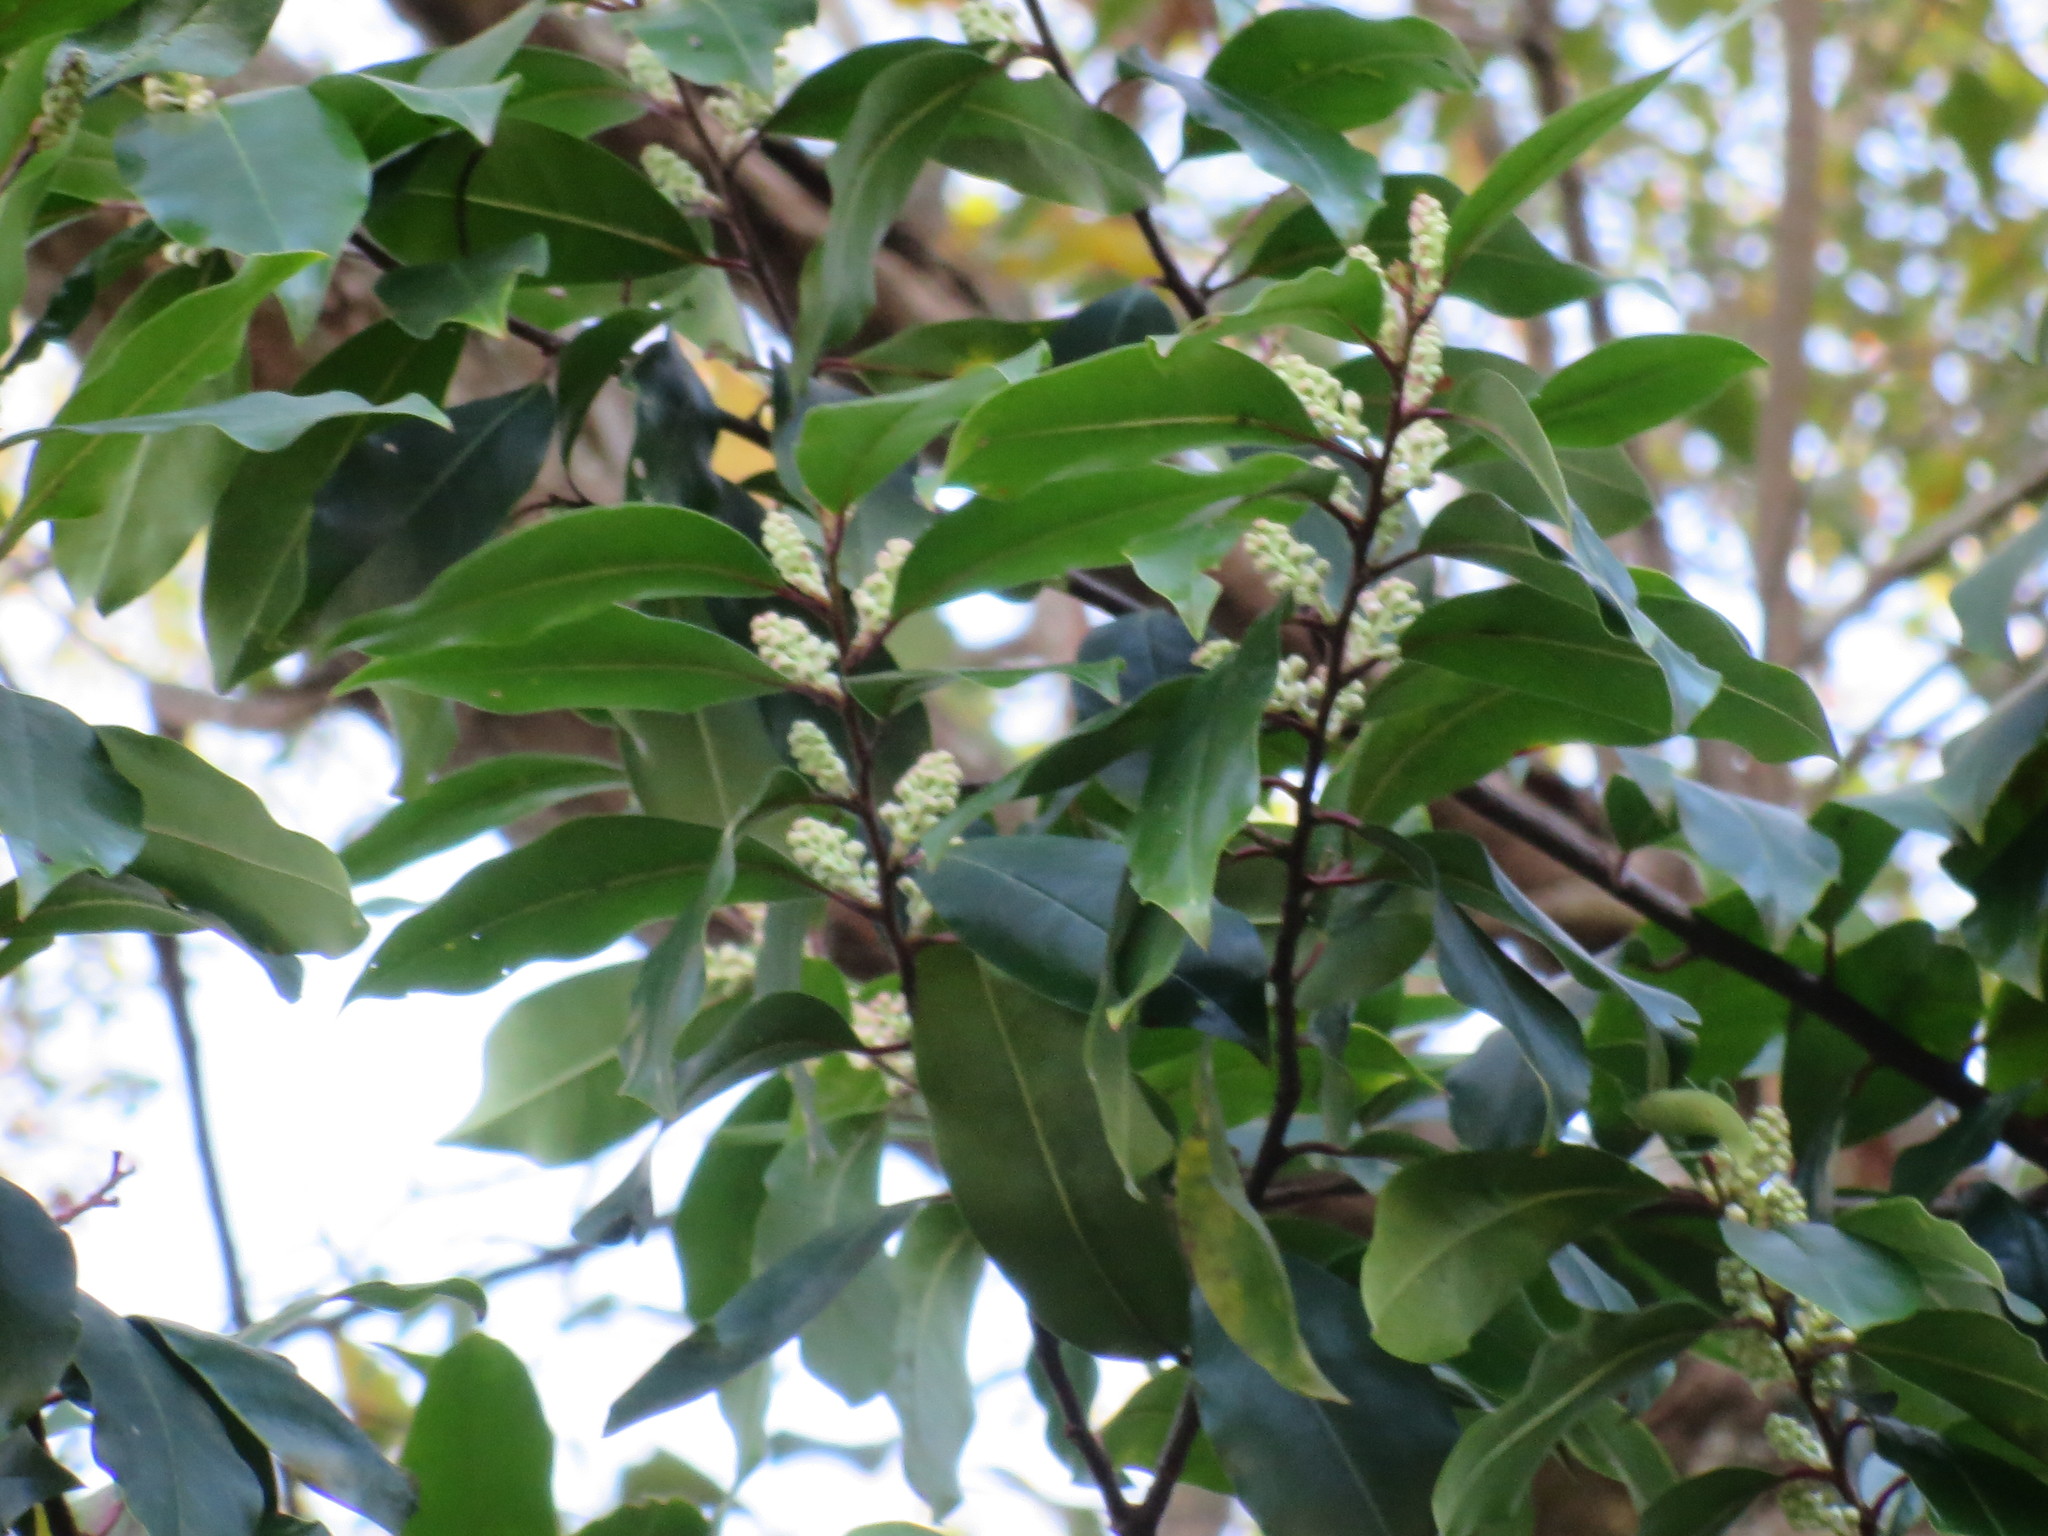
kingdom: Plantae
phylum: Tracheophyta
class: Magnoliopsida
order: Rosales
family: Rosaceae
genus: Prunus
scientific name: Prunus caroliniana
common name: Carolina laurel cherry
